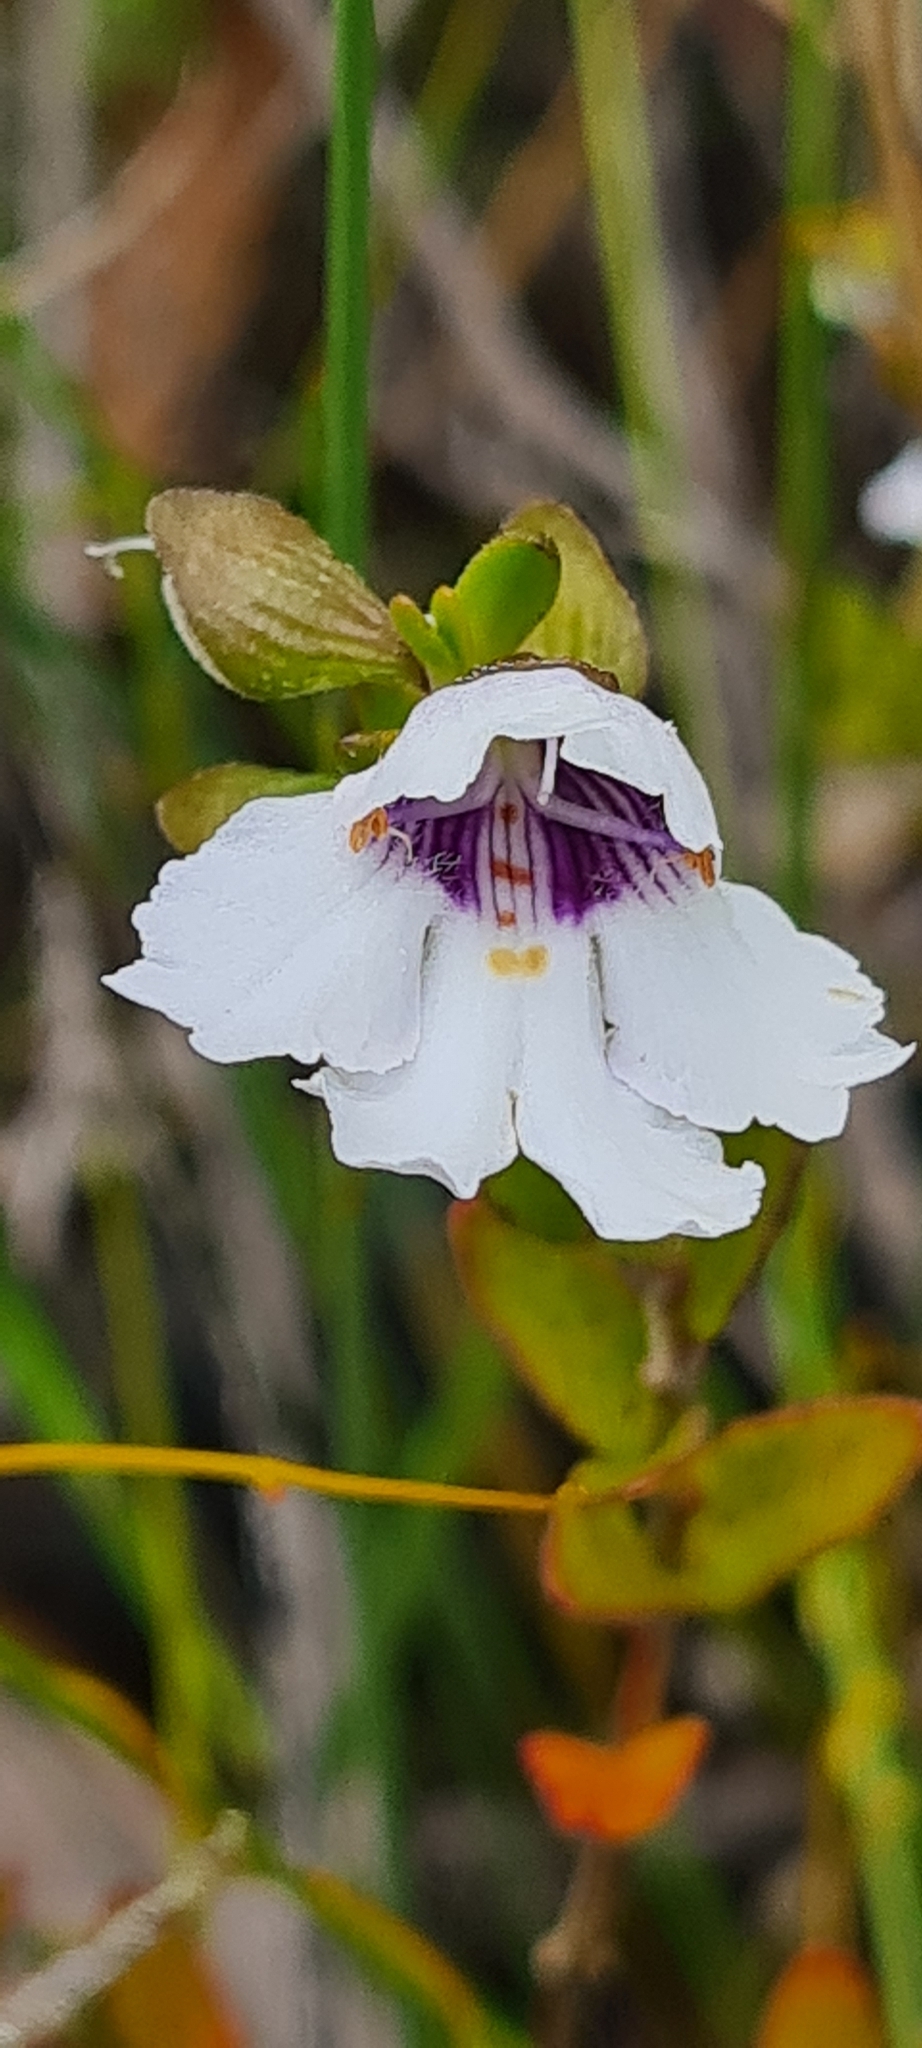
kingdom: Plantae
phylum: Tracheophyta
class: Magnoliopsida
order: Lamiales
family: Lamiaceae
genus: Prostanthera
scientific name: Prostanthera saxicola
